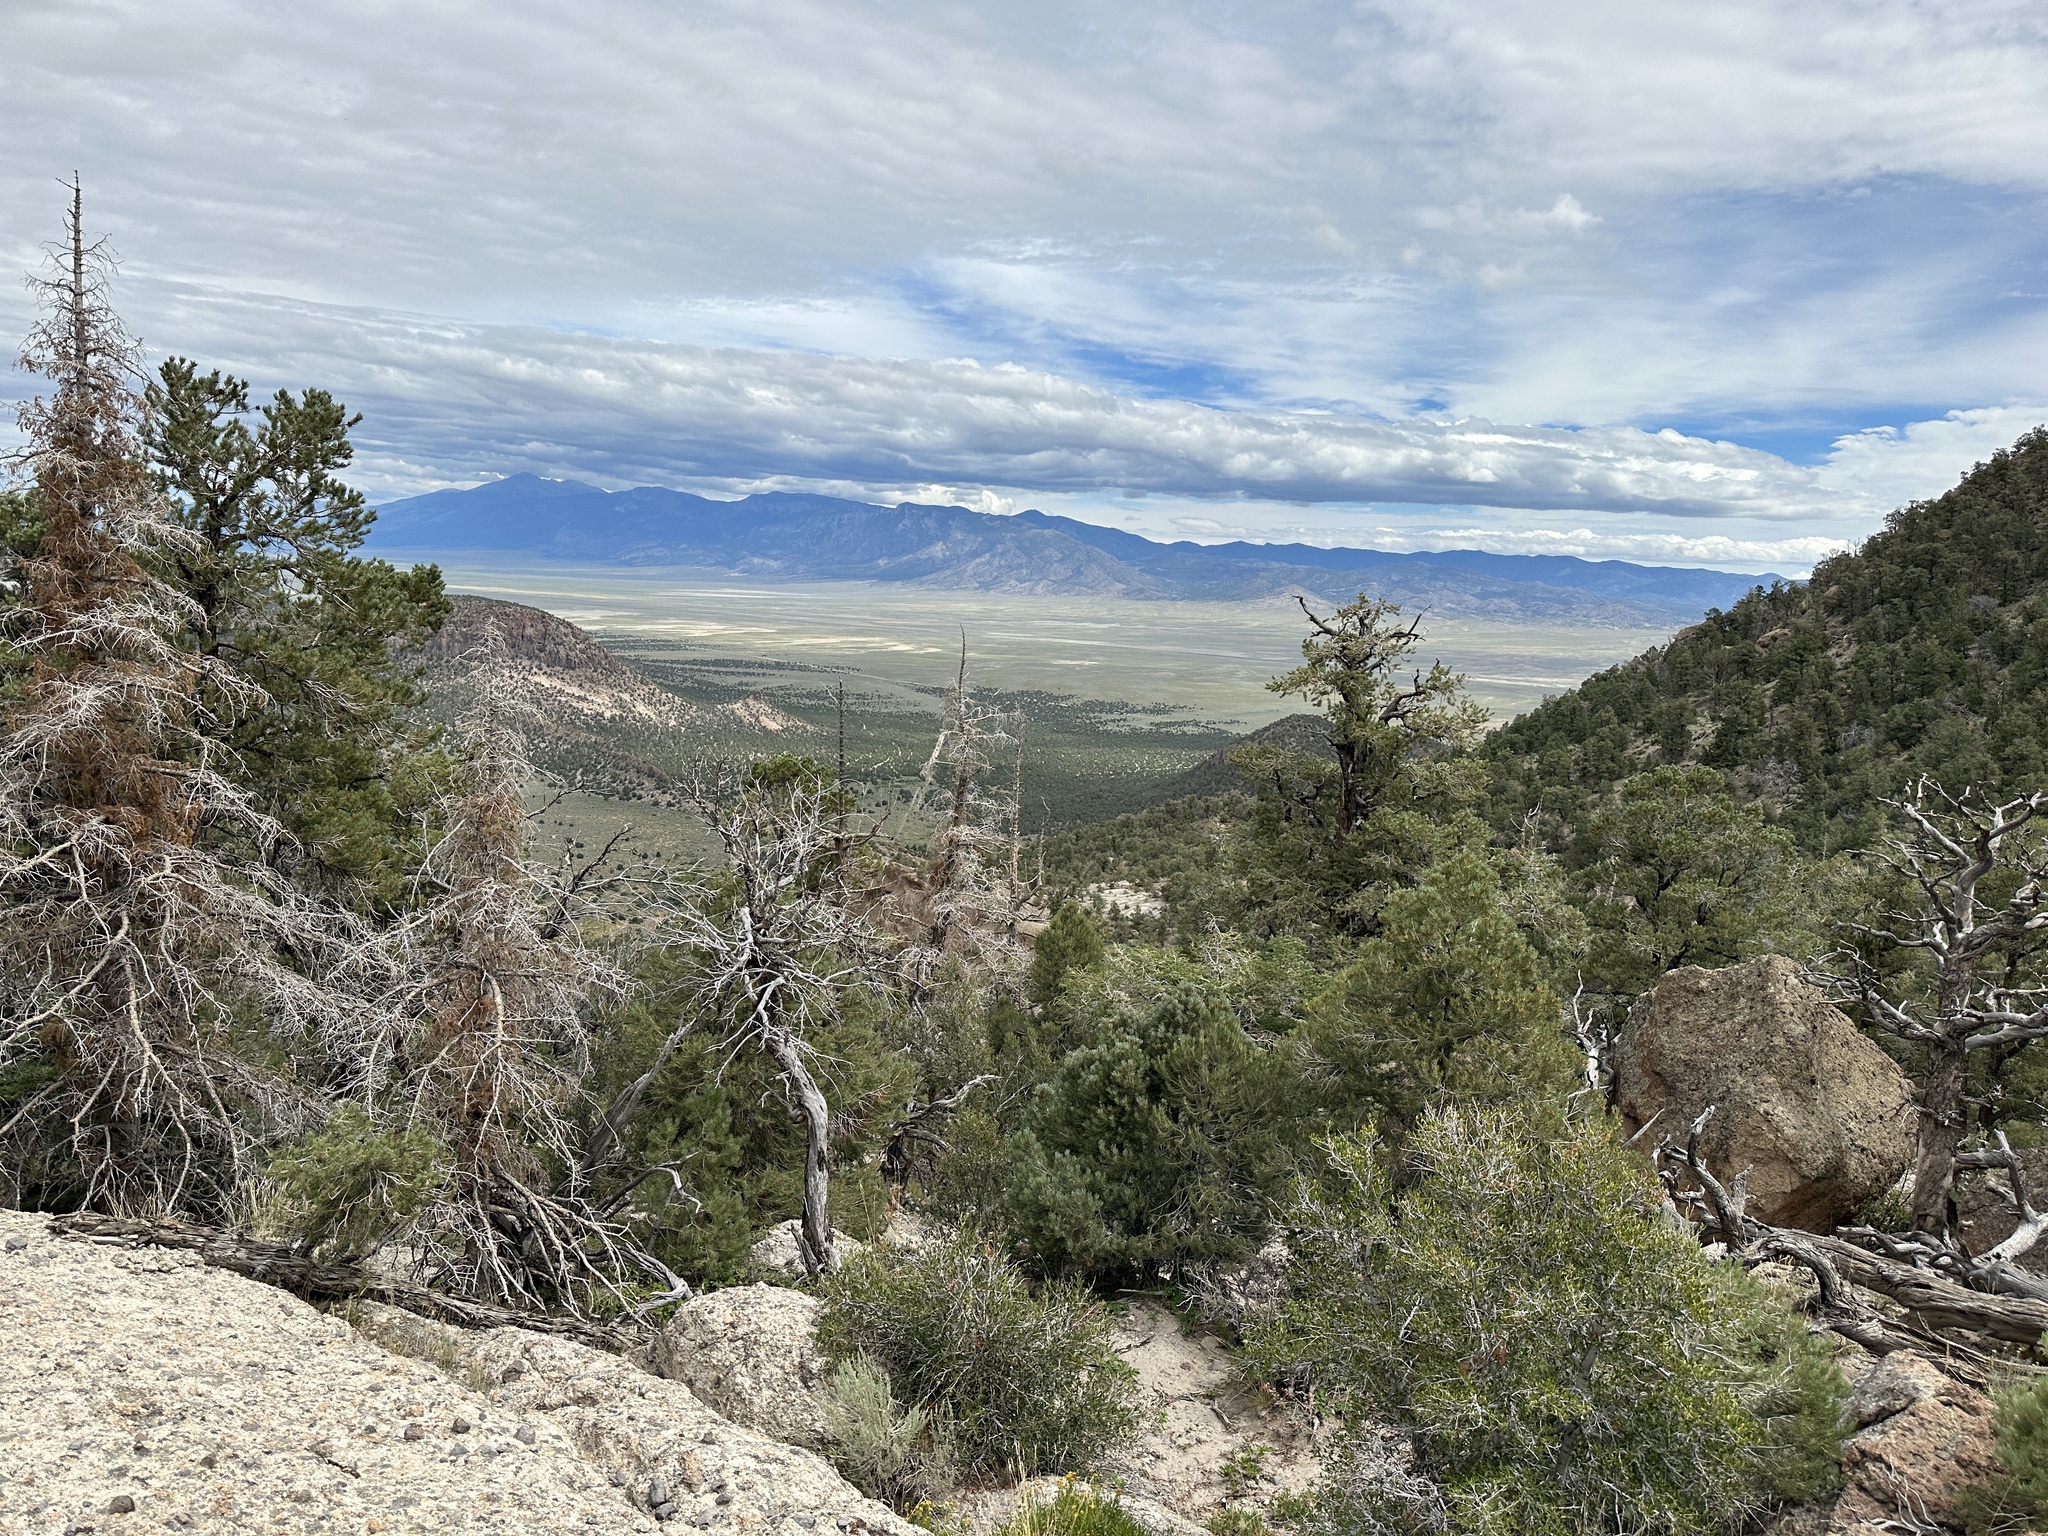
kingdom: Plantae
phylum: Tracheophyta
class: Pinopsida
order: Pinales
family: Pinaceae
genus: Abies
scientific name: Abies concolor
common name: Colorado fir
